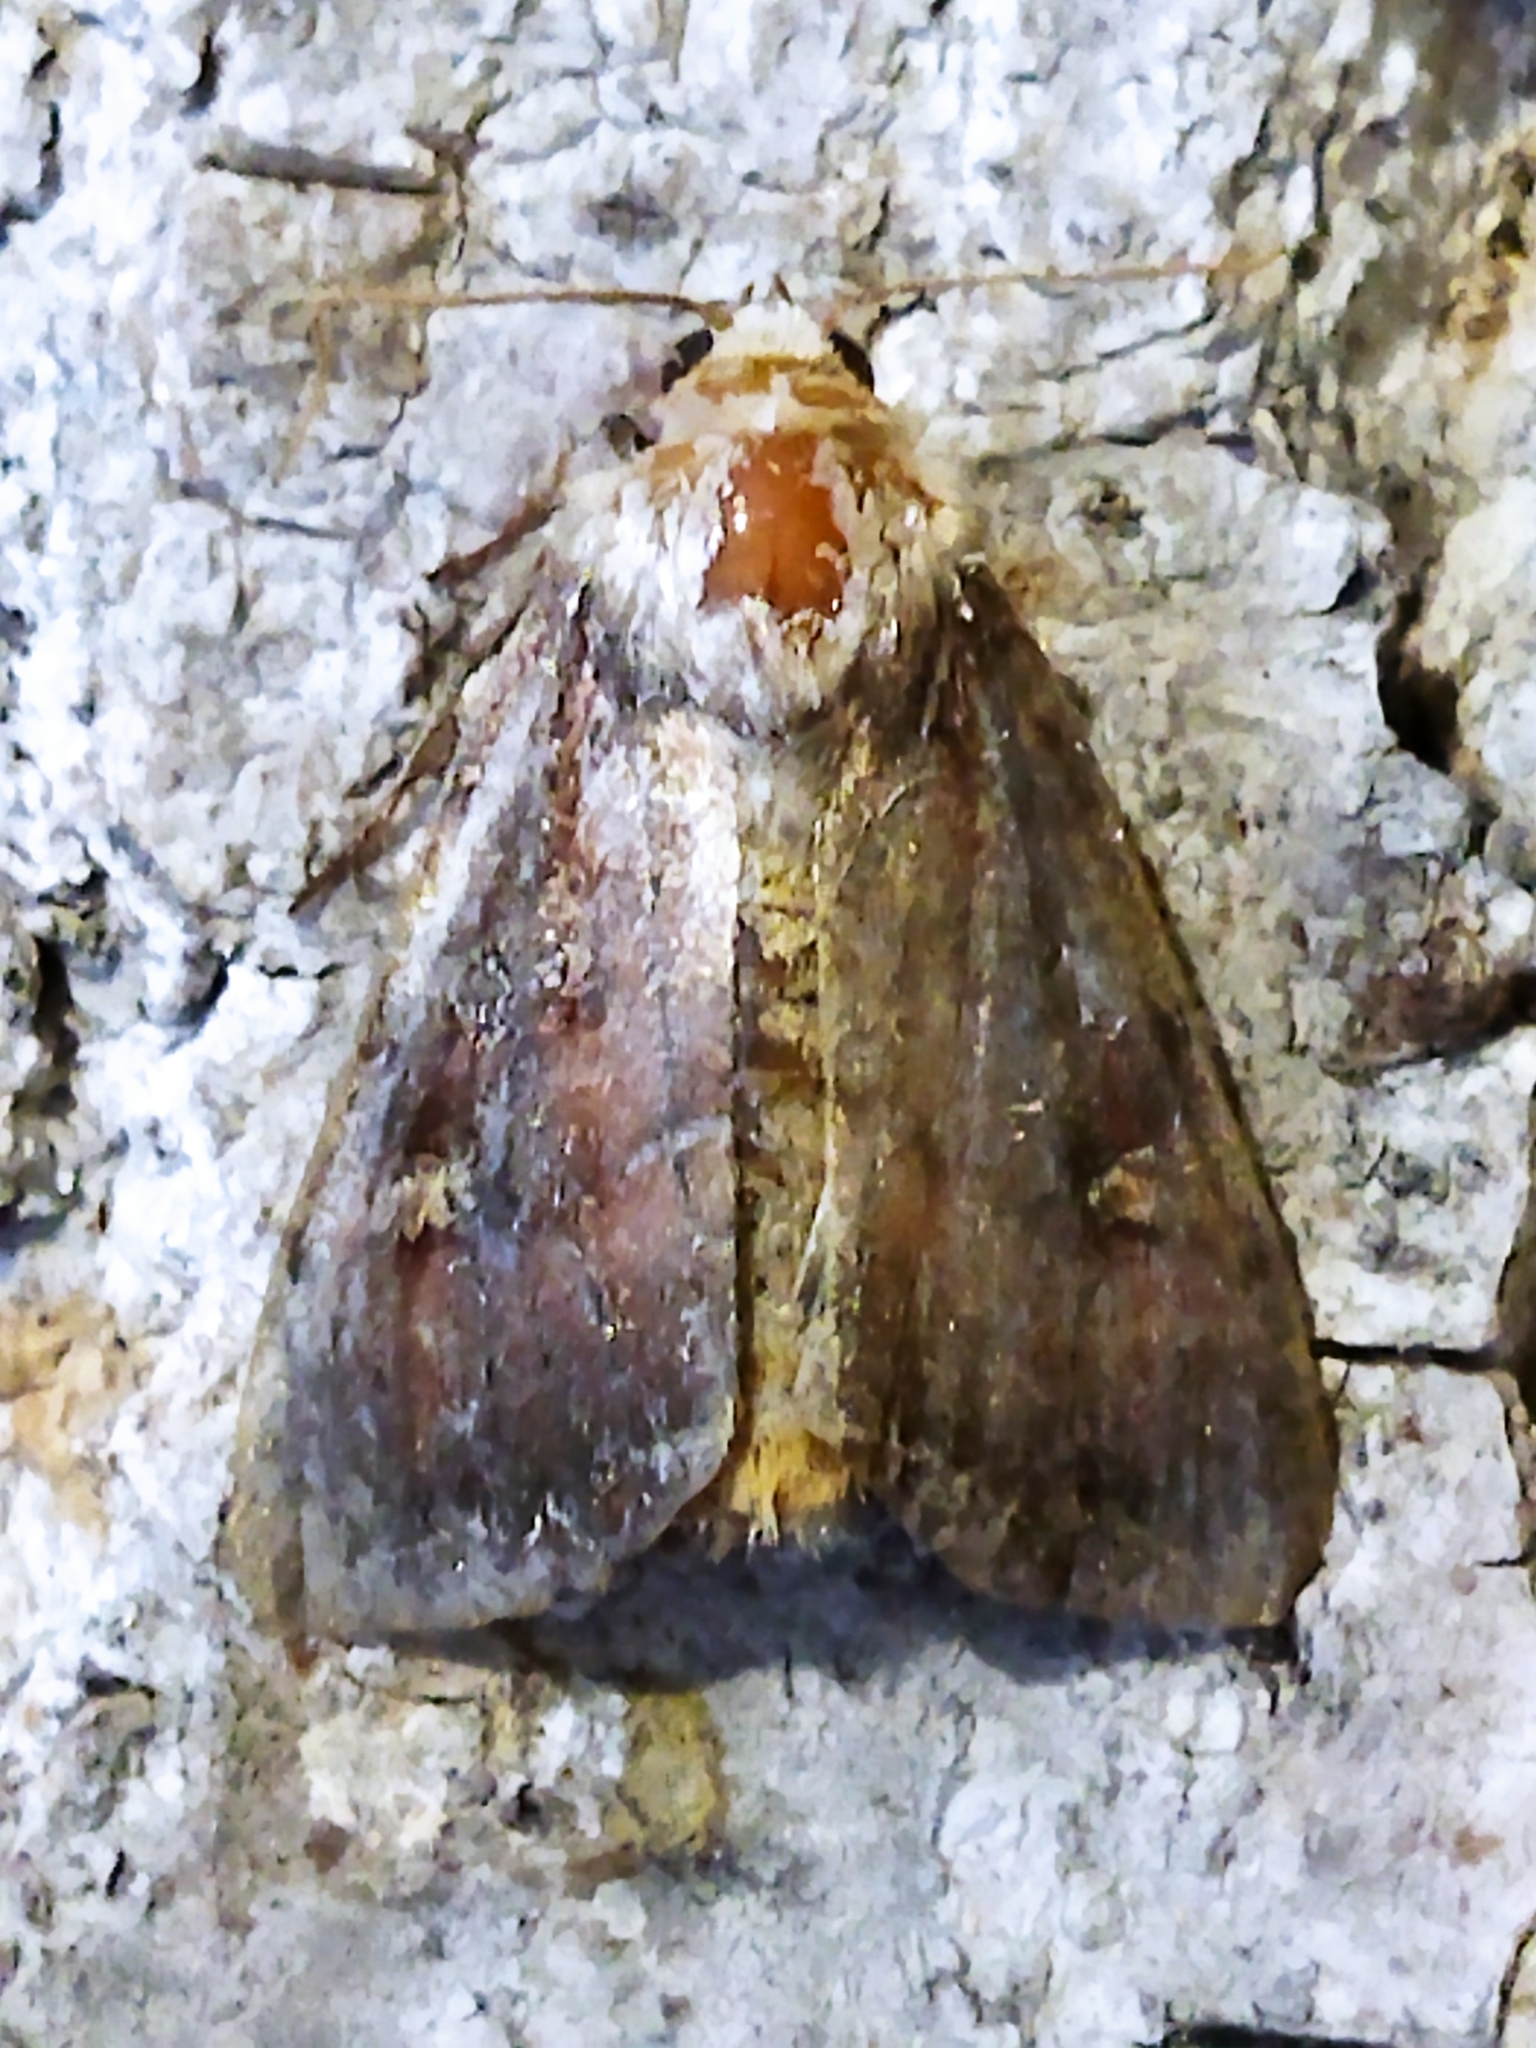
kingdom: Animalia
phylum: Arthropoda
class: Insecta
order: Lepidoptera
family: Noctuidae
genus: Lacanobia
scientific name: Lacanobia oleracea
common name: Bright-line brown-eye
